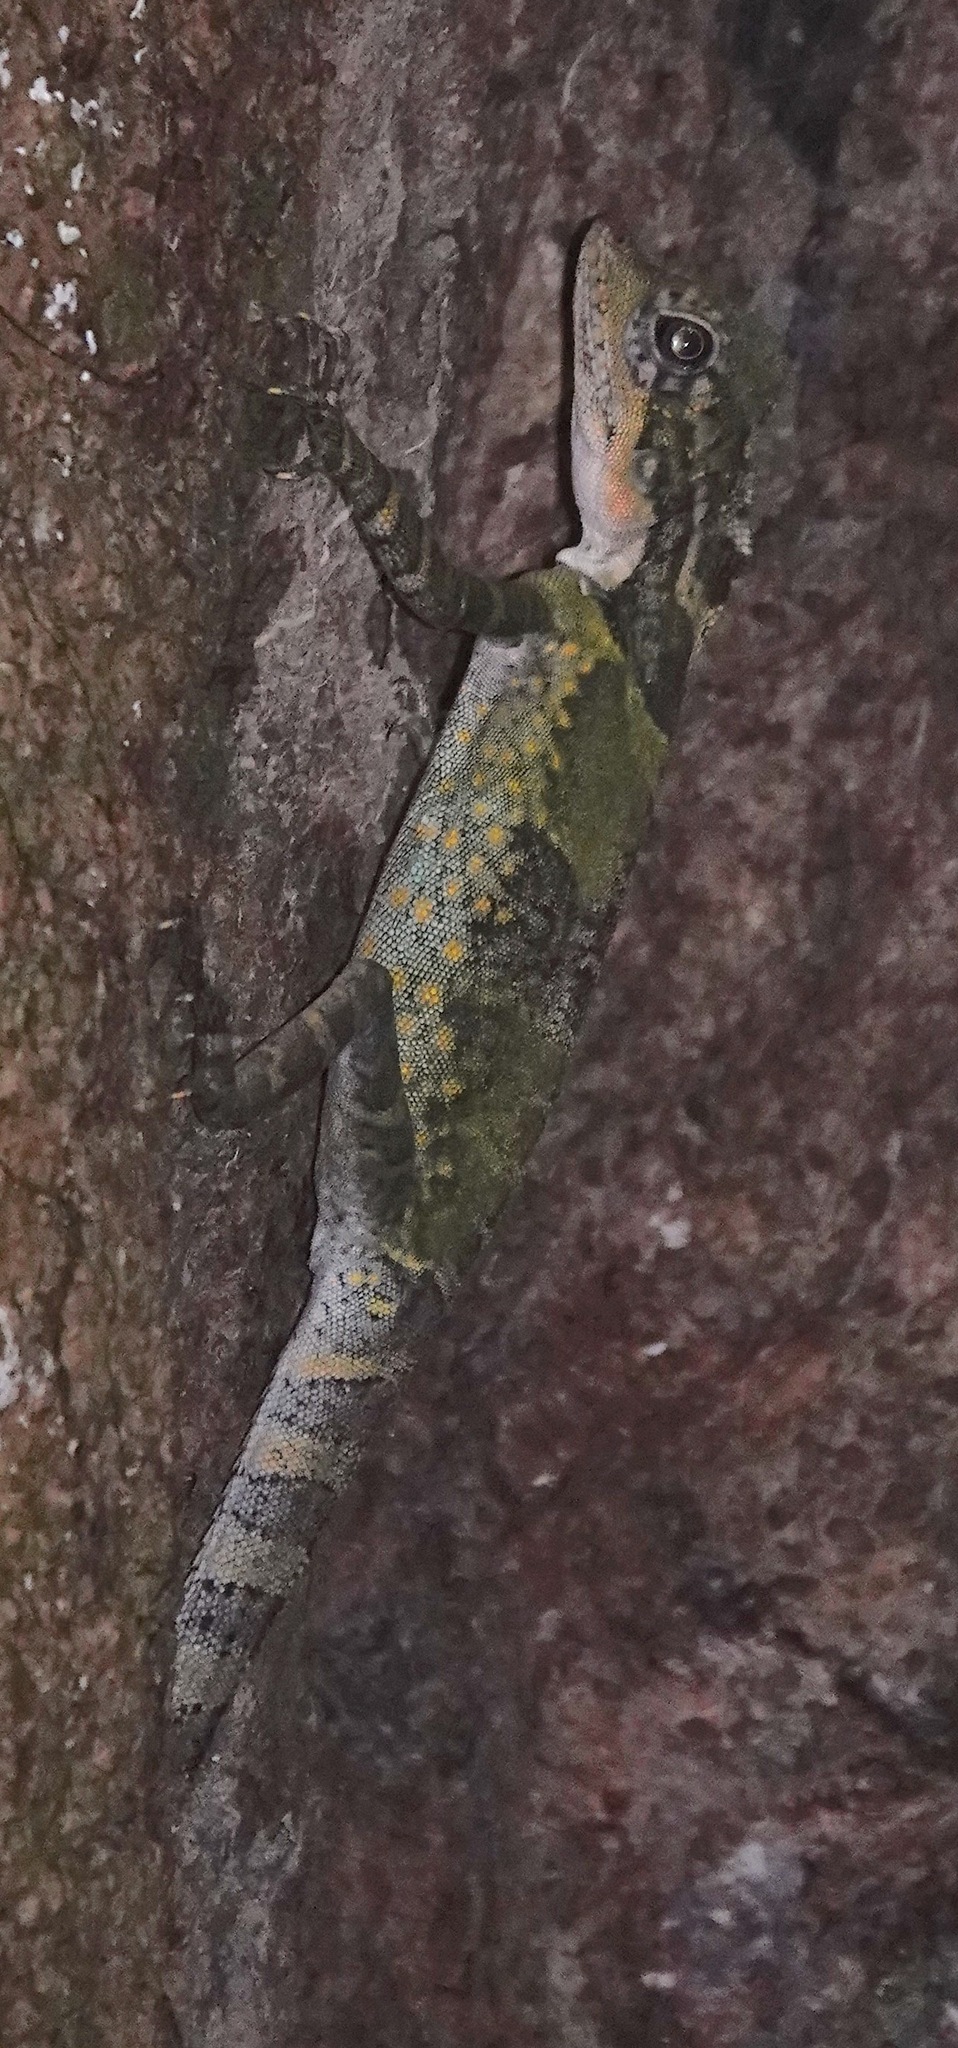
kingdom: Animalia
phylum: Chordata
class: Squamata
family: Agamidae
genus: Gonocephalus
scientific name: Gonocephalus grandis
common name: Giant forest dragon
